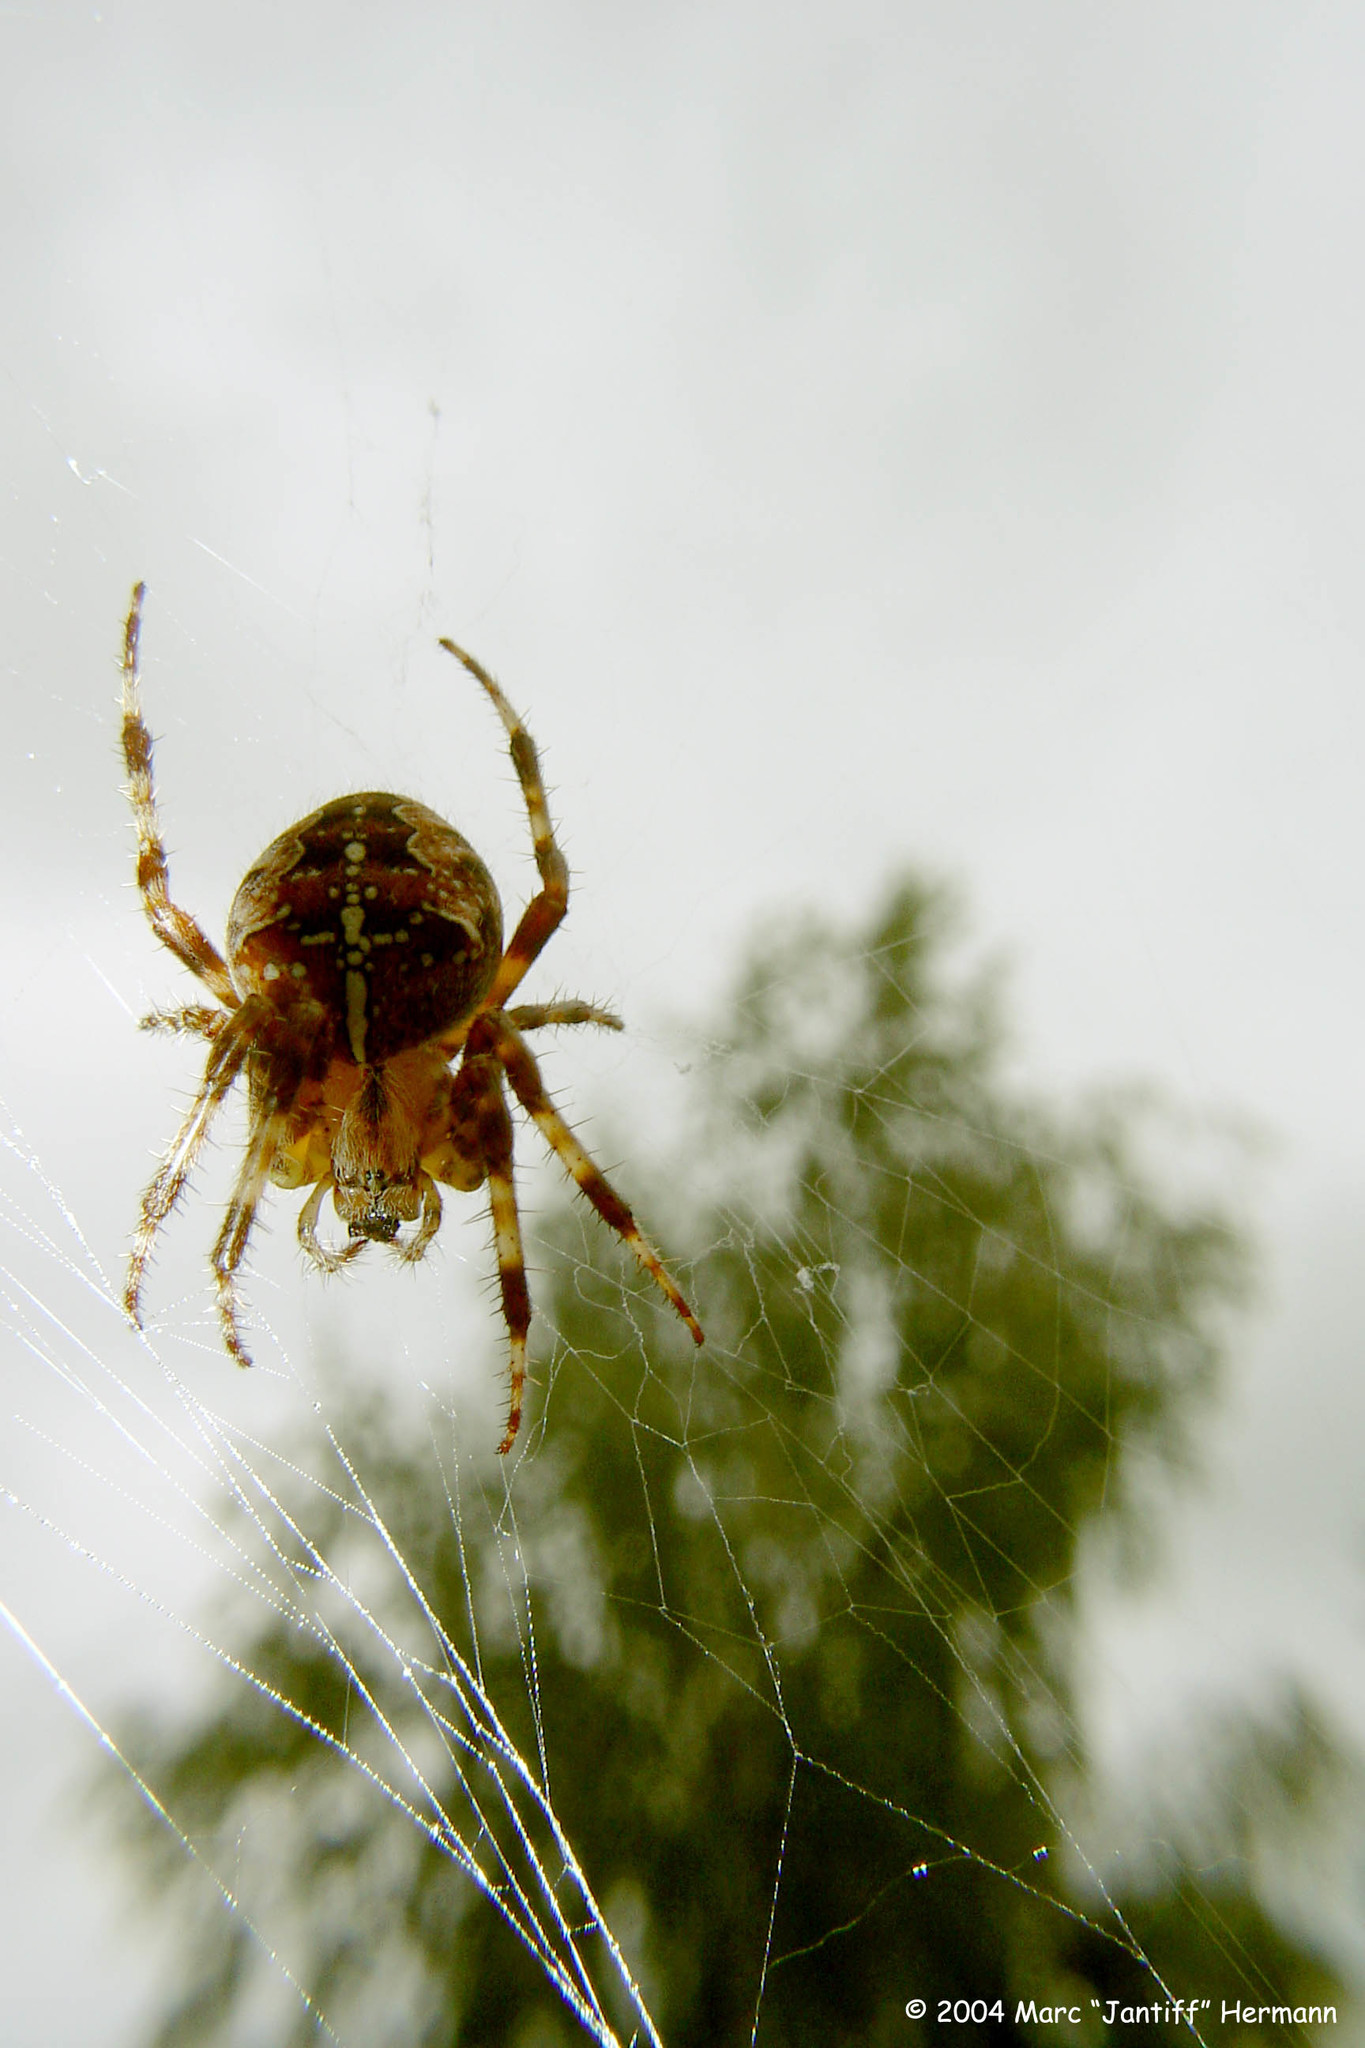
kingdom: Animalia
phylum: Arthropoda
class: Arachnida
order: Araneae
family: Araneidae
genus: Araneus
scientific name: Araneus diadematus
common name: Cross orbweaver
